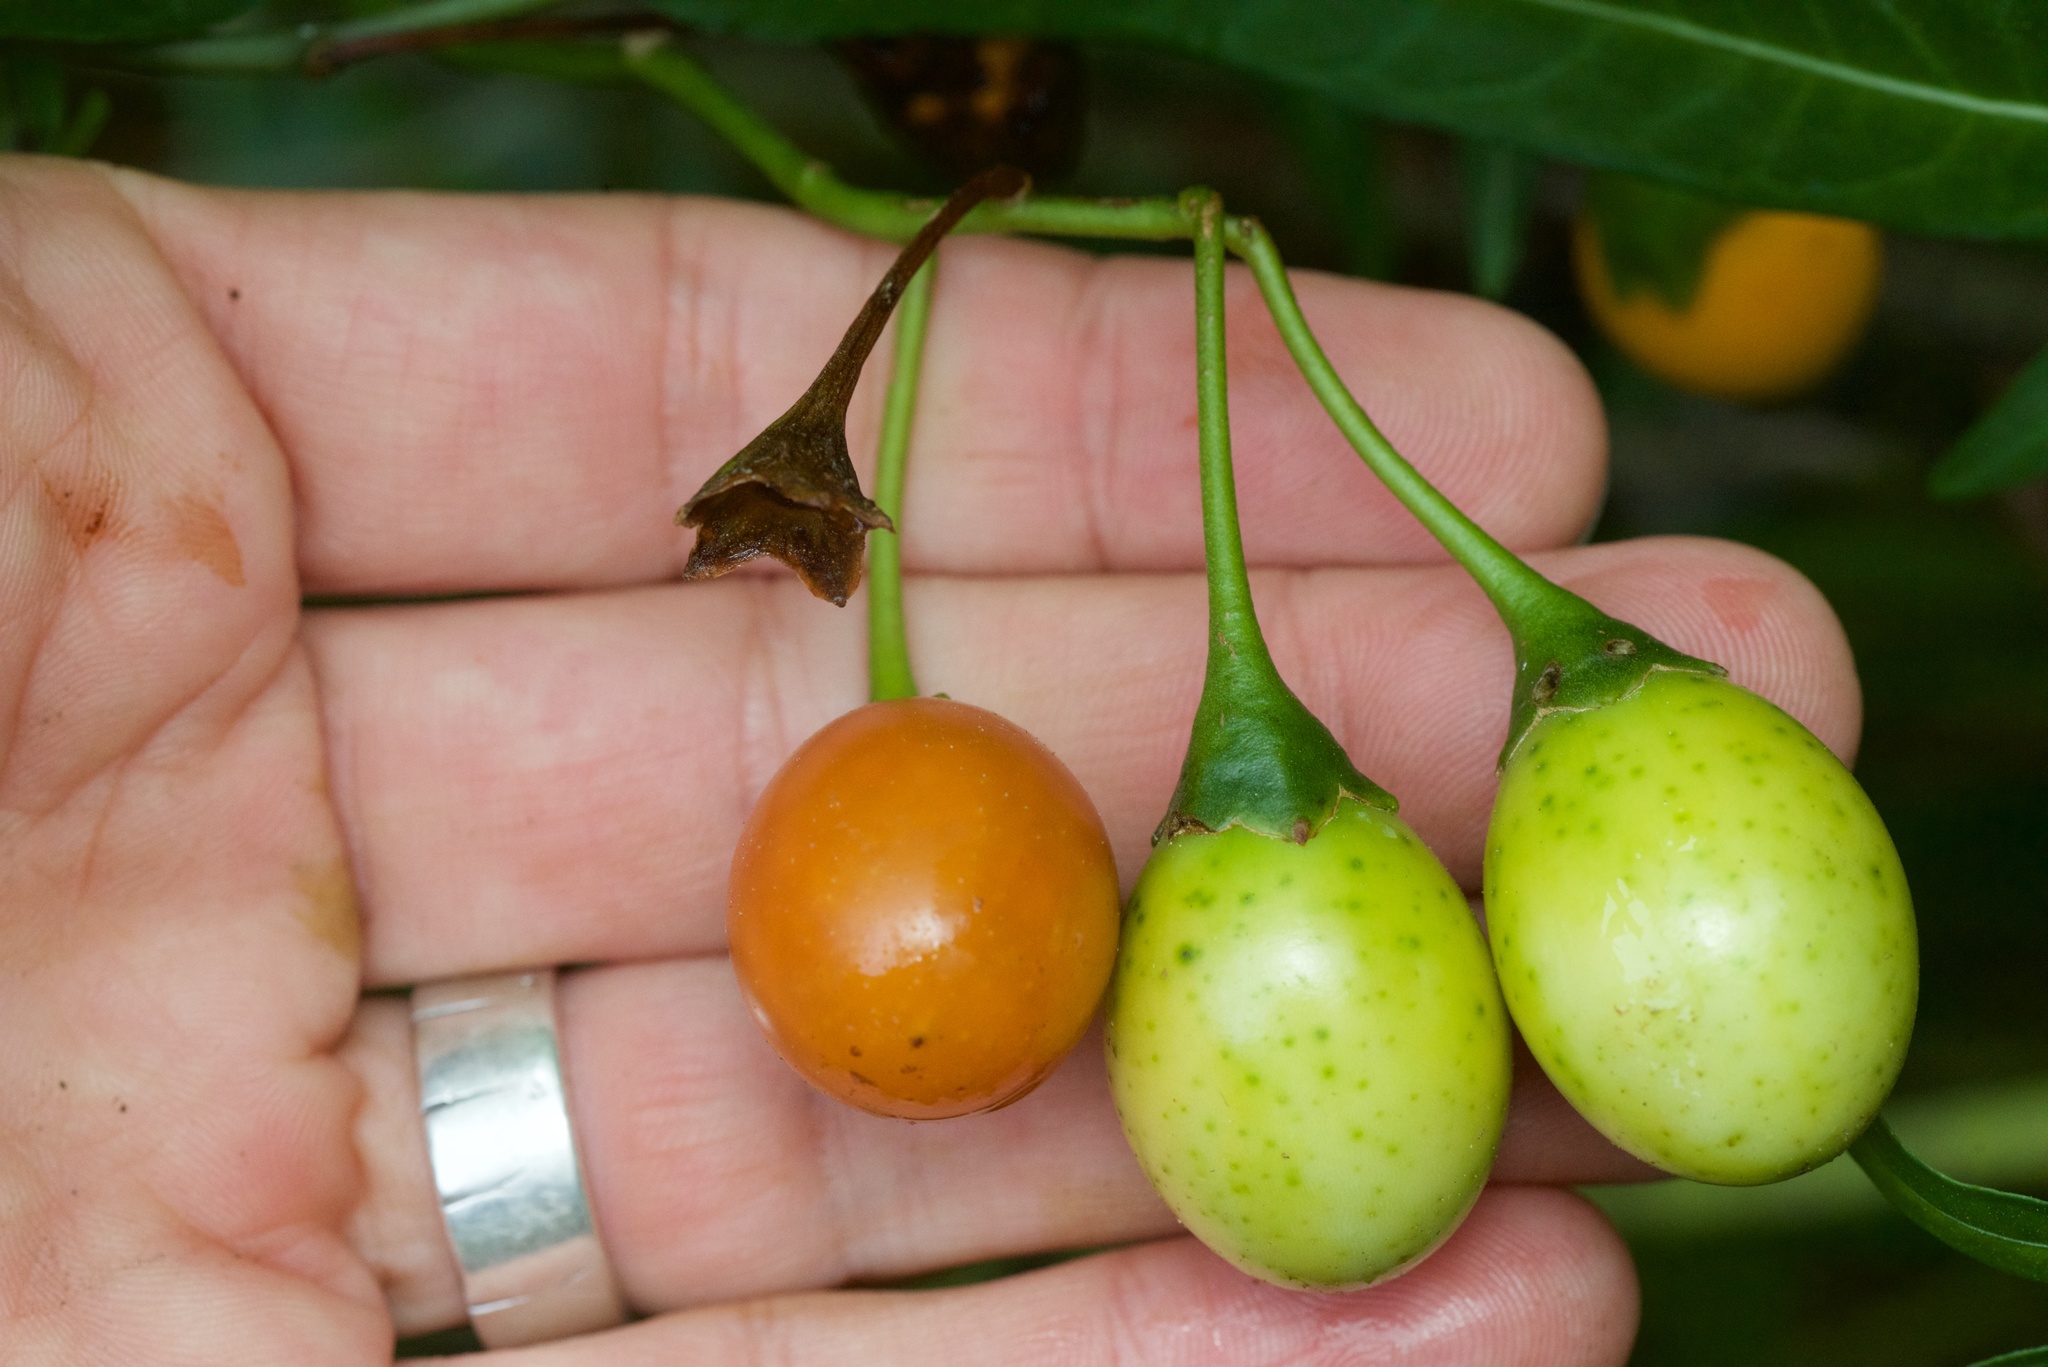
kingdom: Plantae
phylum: Tracheophyta
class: Magnoliopsida
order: Solanales
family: Solanaceae
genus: Solanum
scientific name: Solanum
